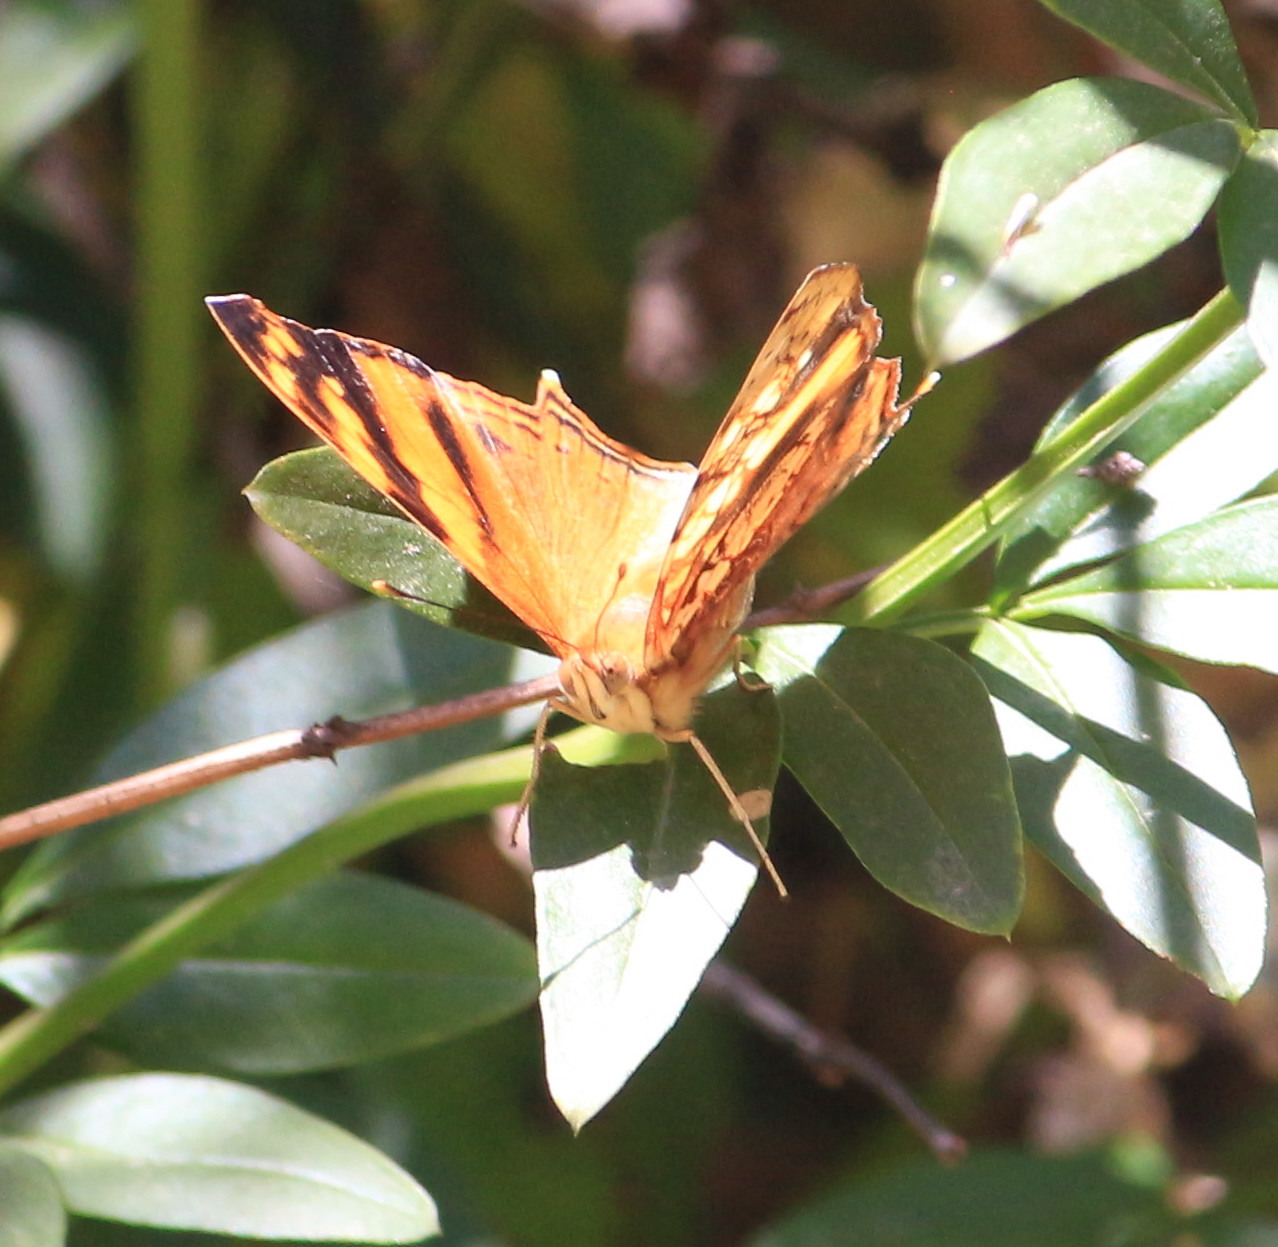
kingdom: Animalia
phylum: Arthropoda
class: Insecta
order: Lepidoptera
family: Nymphalidae
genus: Hypanartia
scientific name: Hypanartia lethe
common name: Orange mapwing
